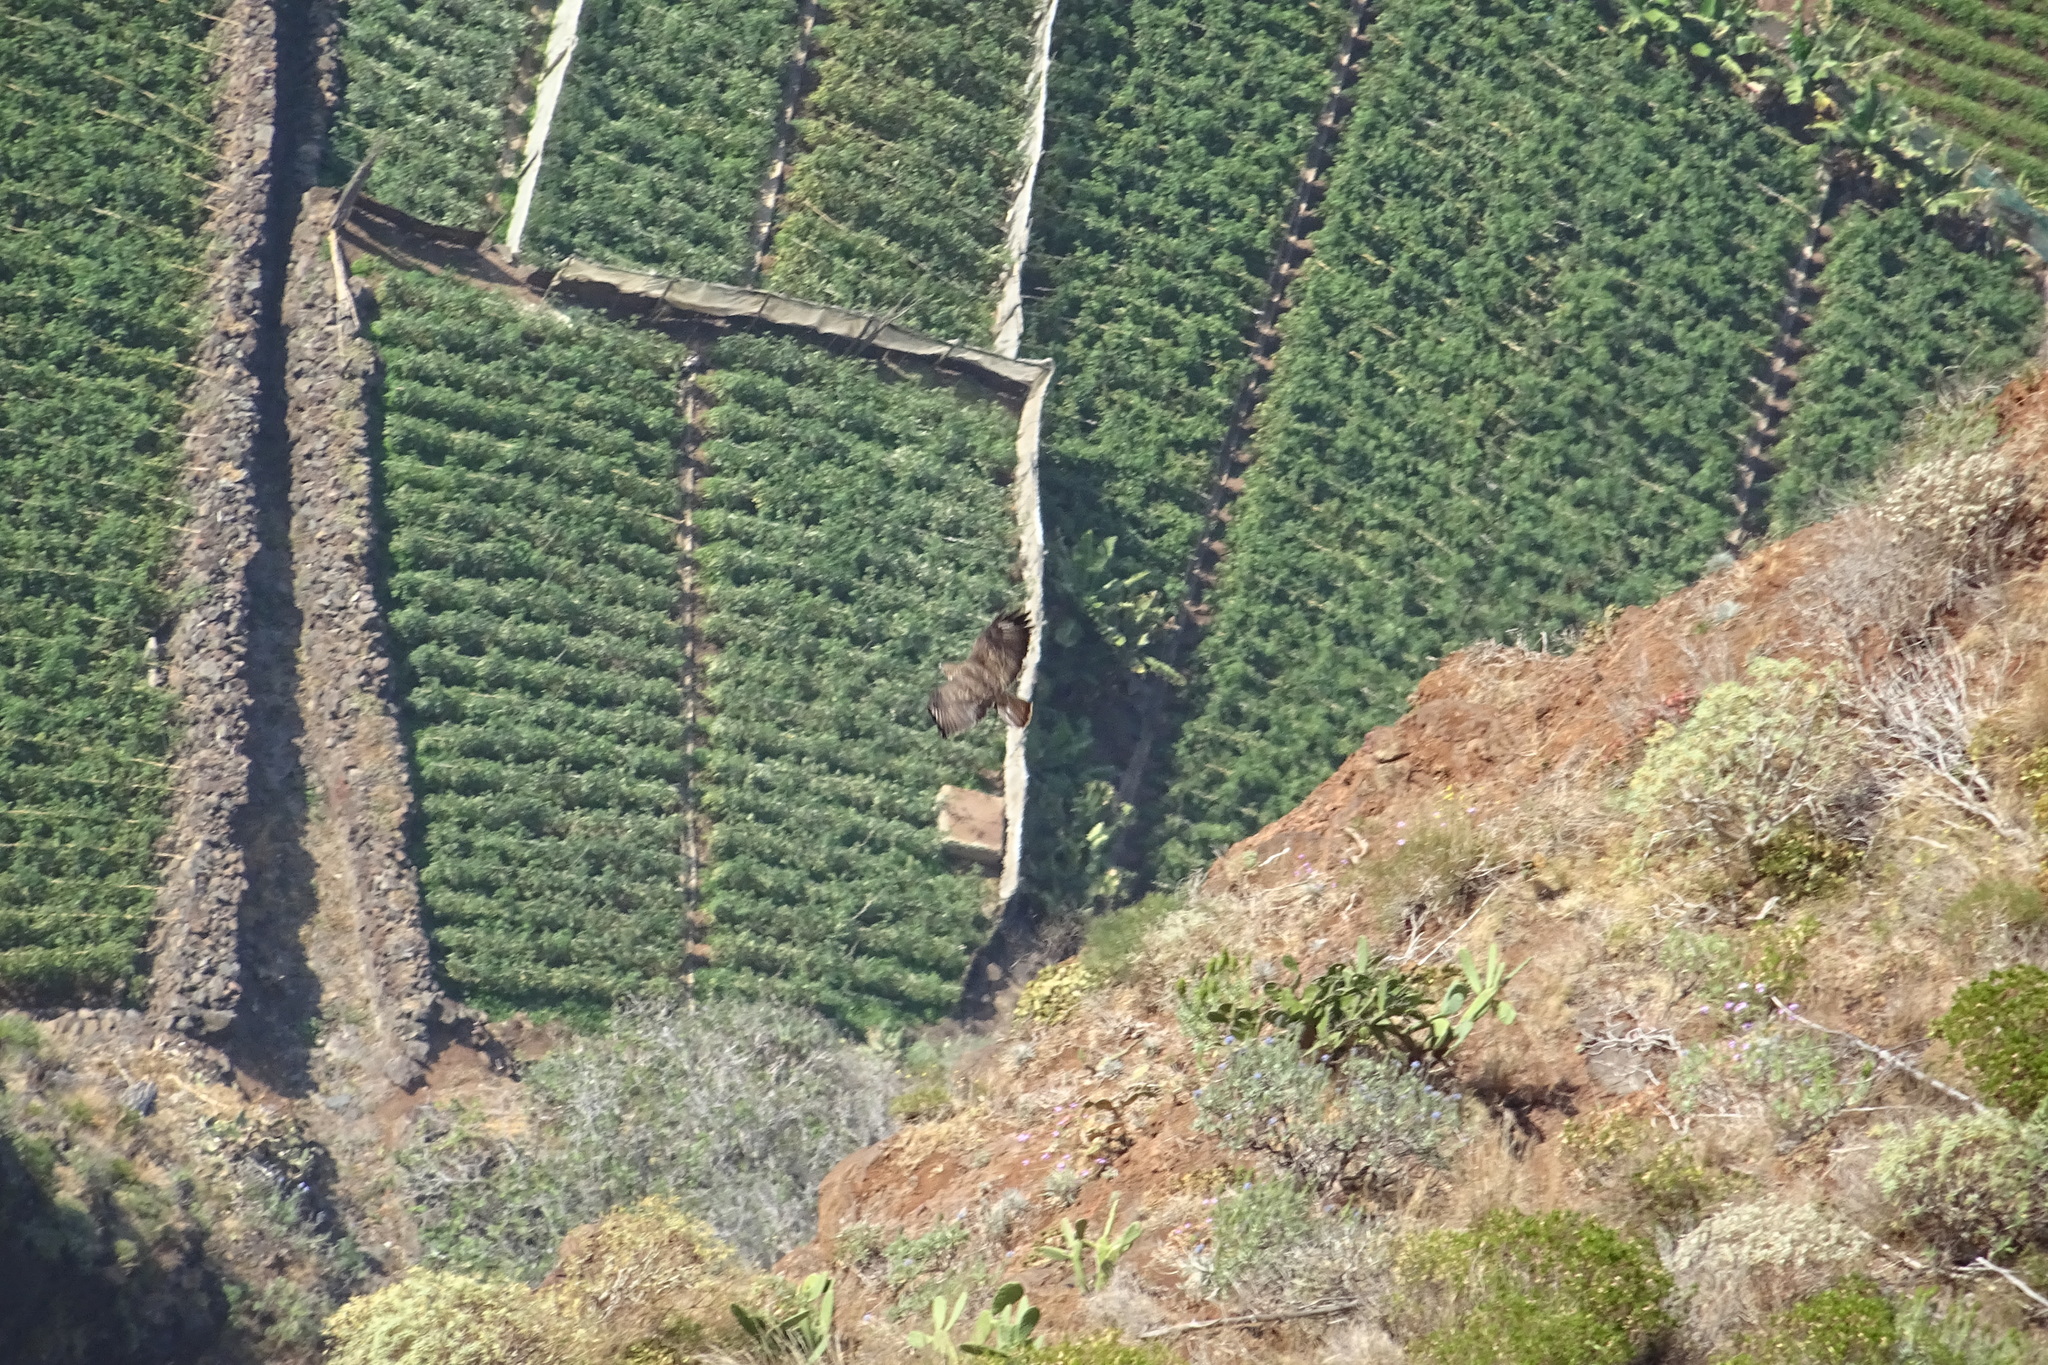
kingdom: Animalia
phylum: Chordata
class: Aves
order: Accipitriformes
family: Accipitridae
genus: Buteo
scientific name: Buteo buteo
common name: Common buzzard
